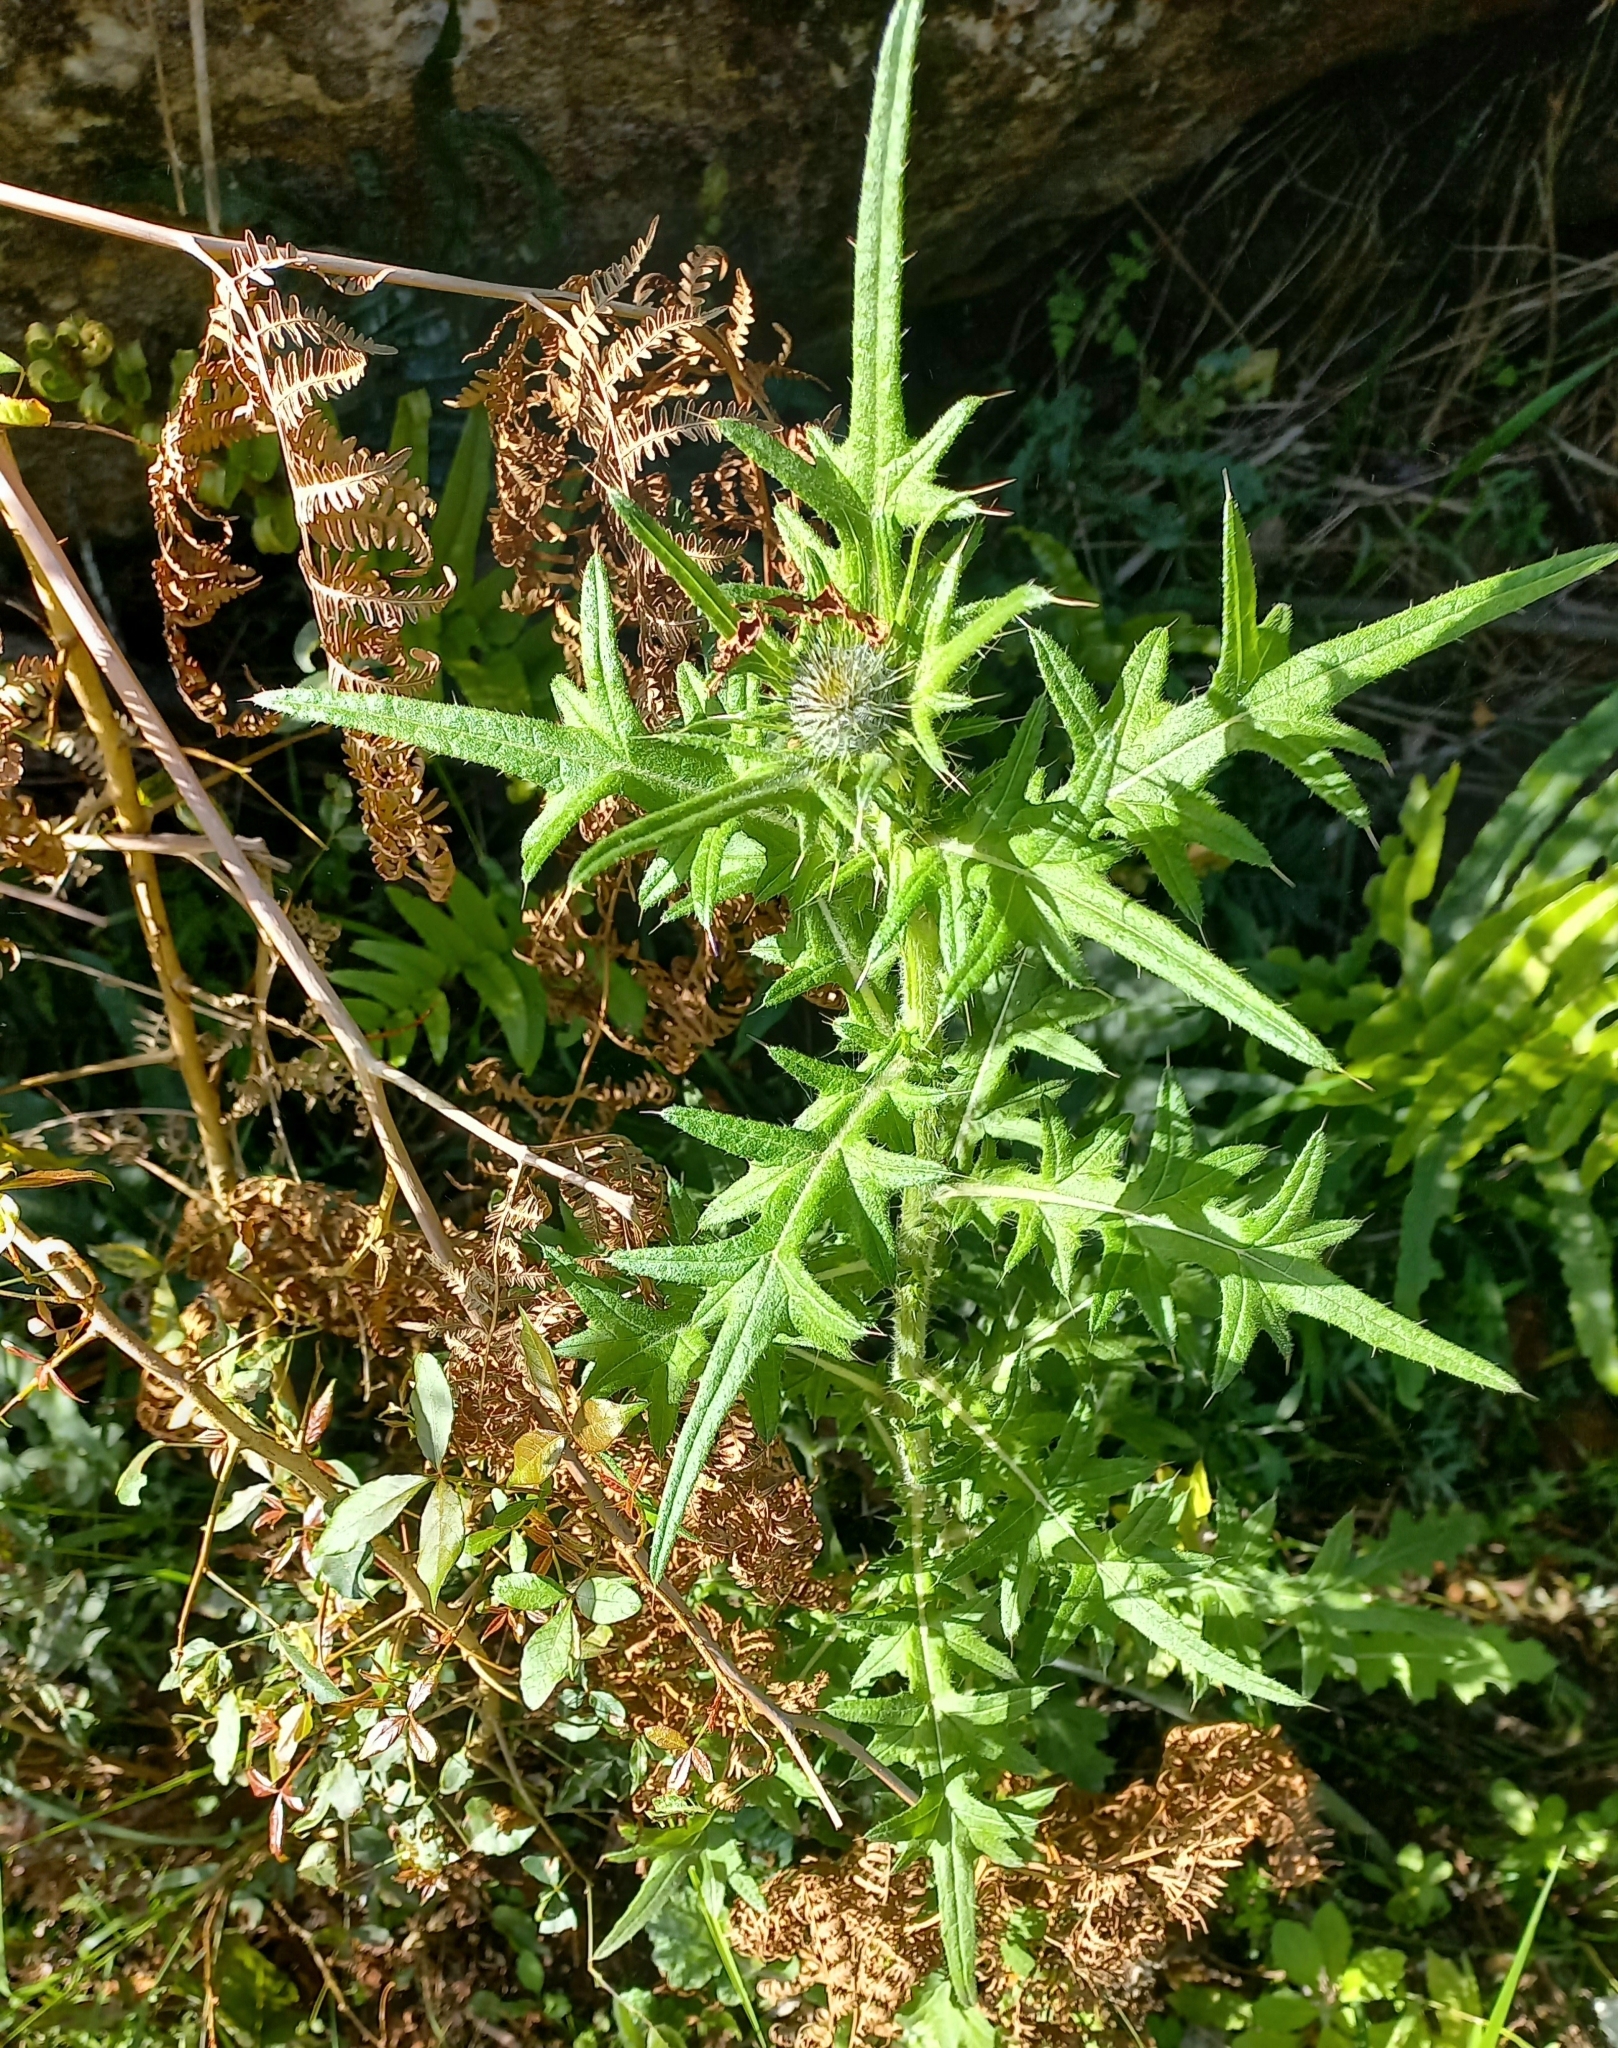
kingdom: Plantae
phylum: Tracheophyta
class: Magnoliopsida
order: Asterales
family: Asteraceae
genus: Cirsium
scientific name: Cirsium vulgare
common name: Bull thistle
